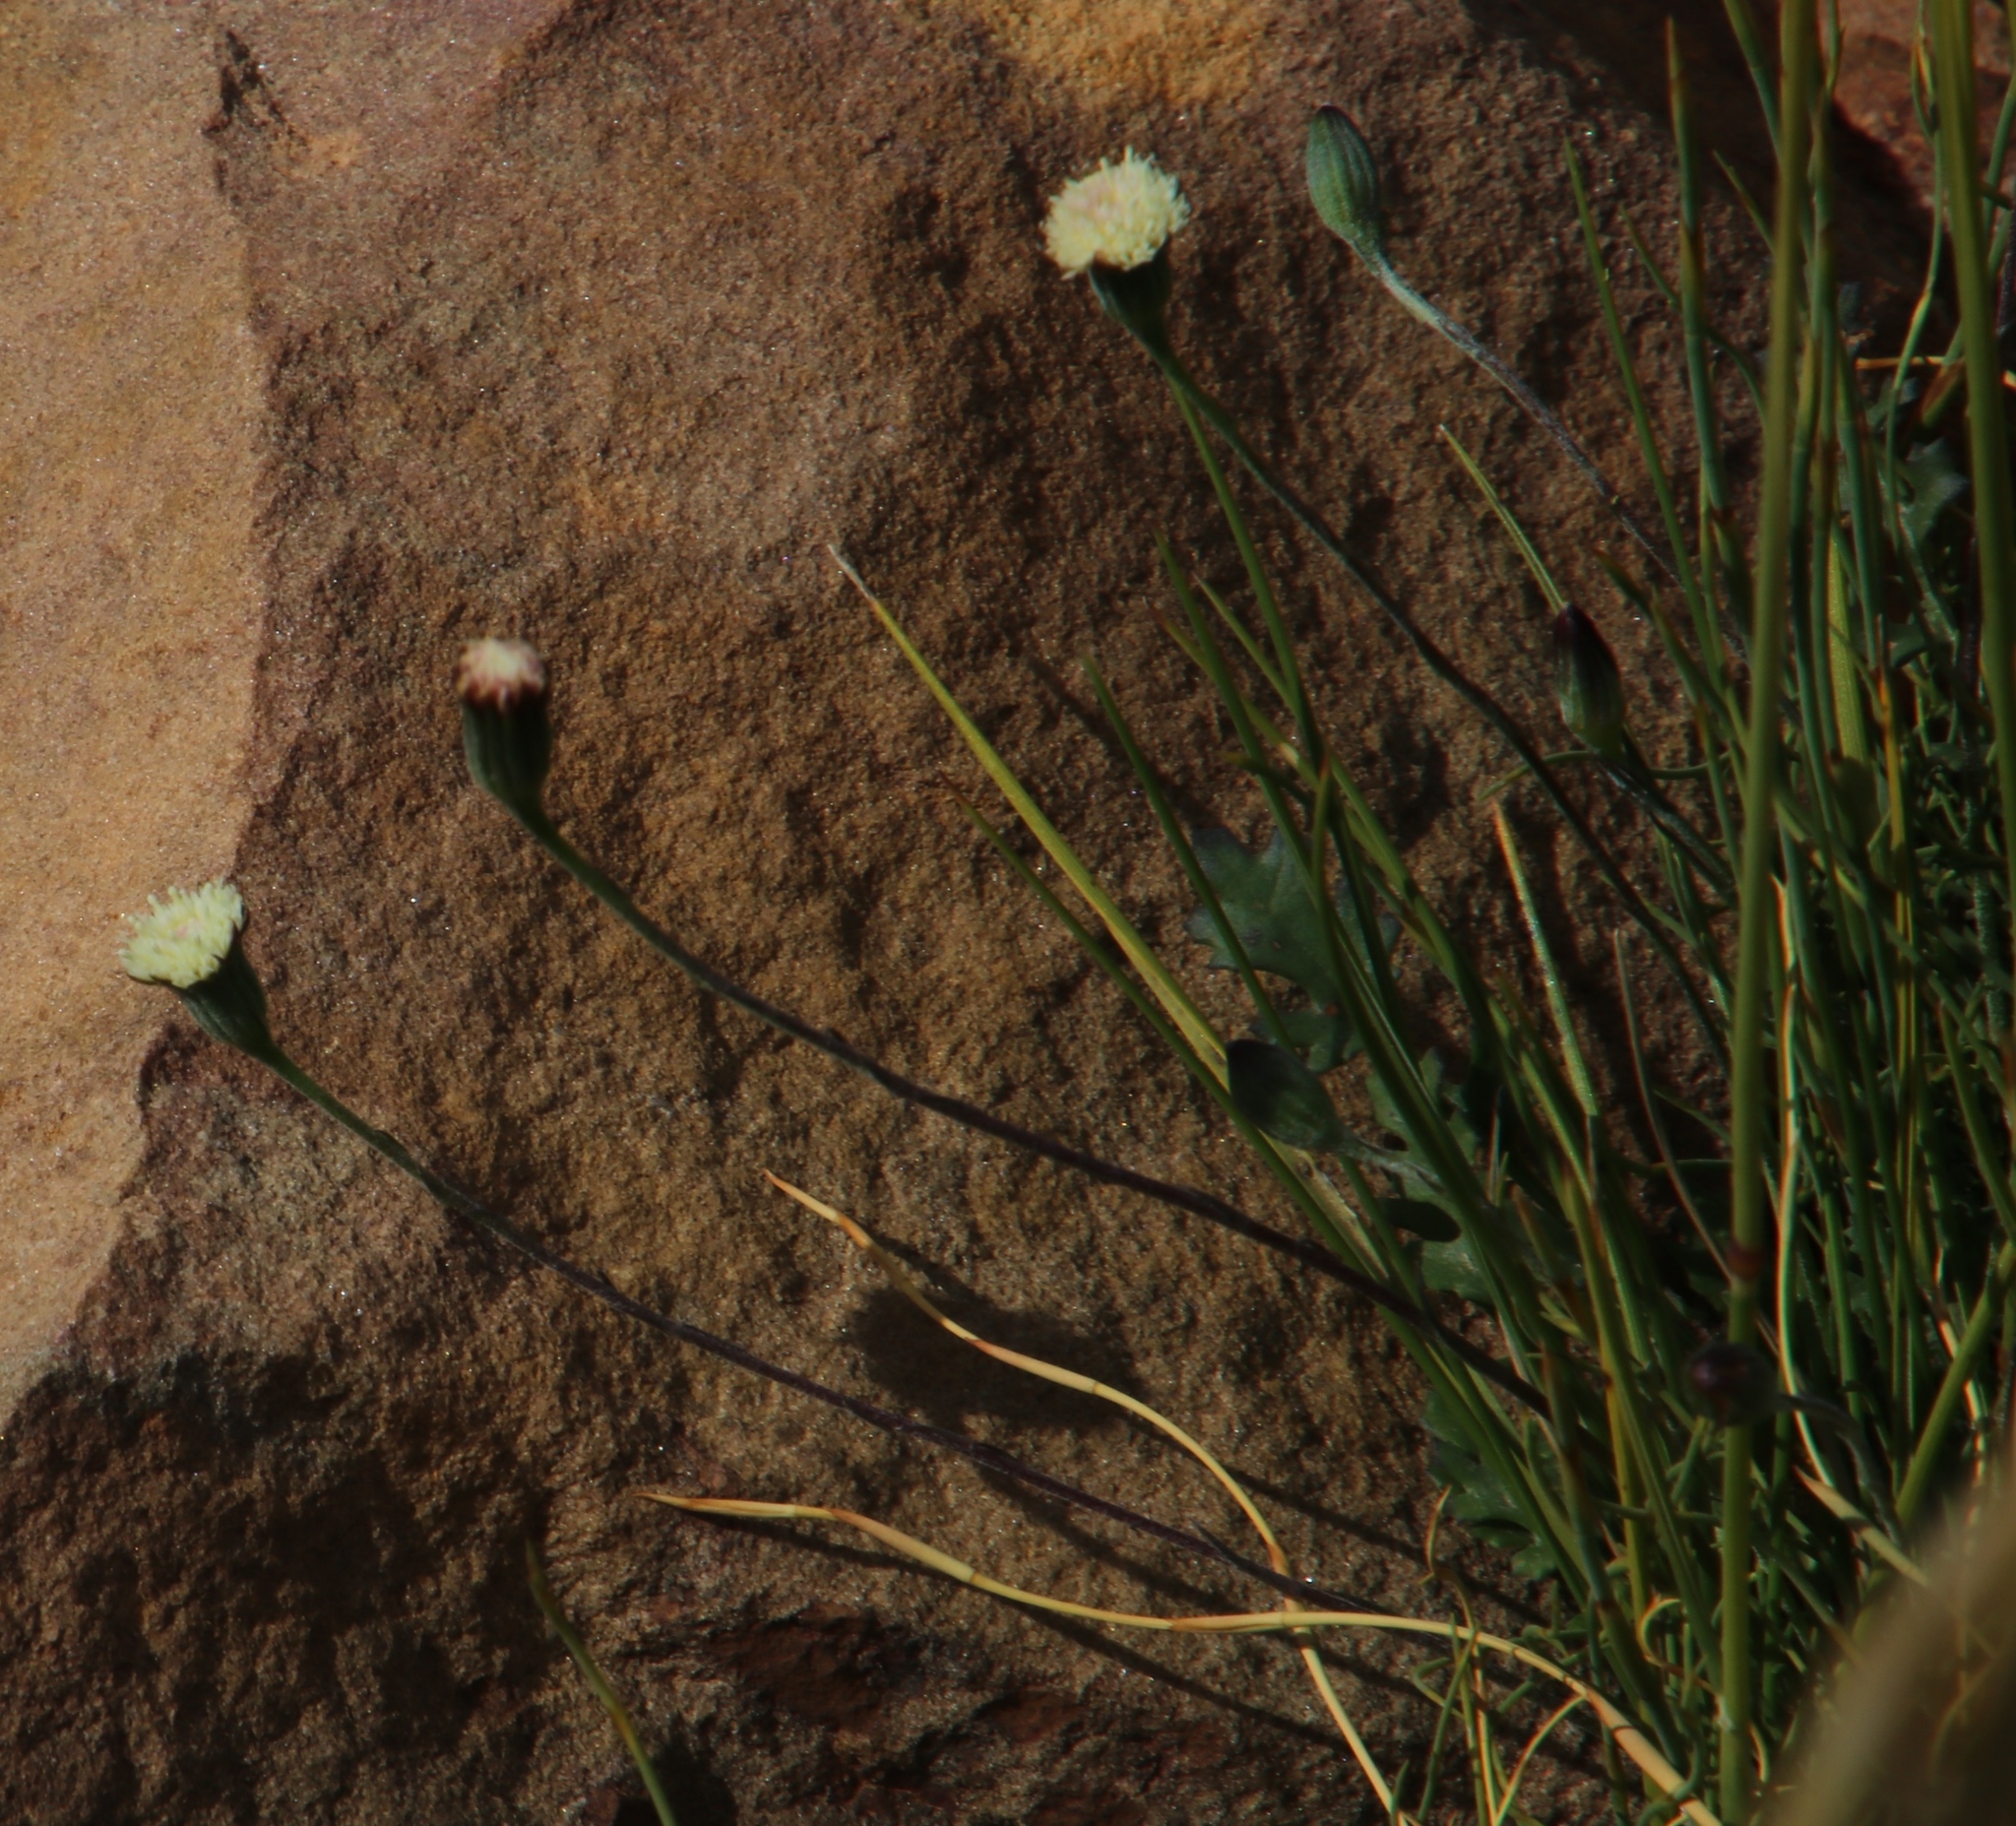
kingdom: Plantae
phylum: Tracheophyta
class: Magnoliopsida
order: Asterales
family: Asteraceae
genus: Bolandia
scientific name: Bolandia pinnatifida
